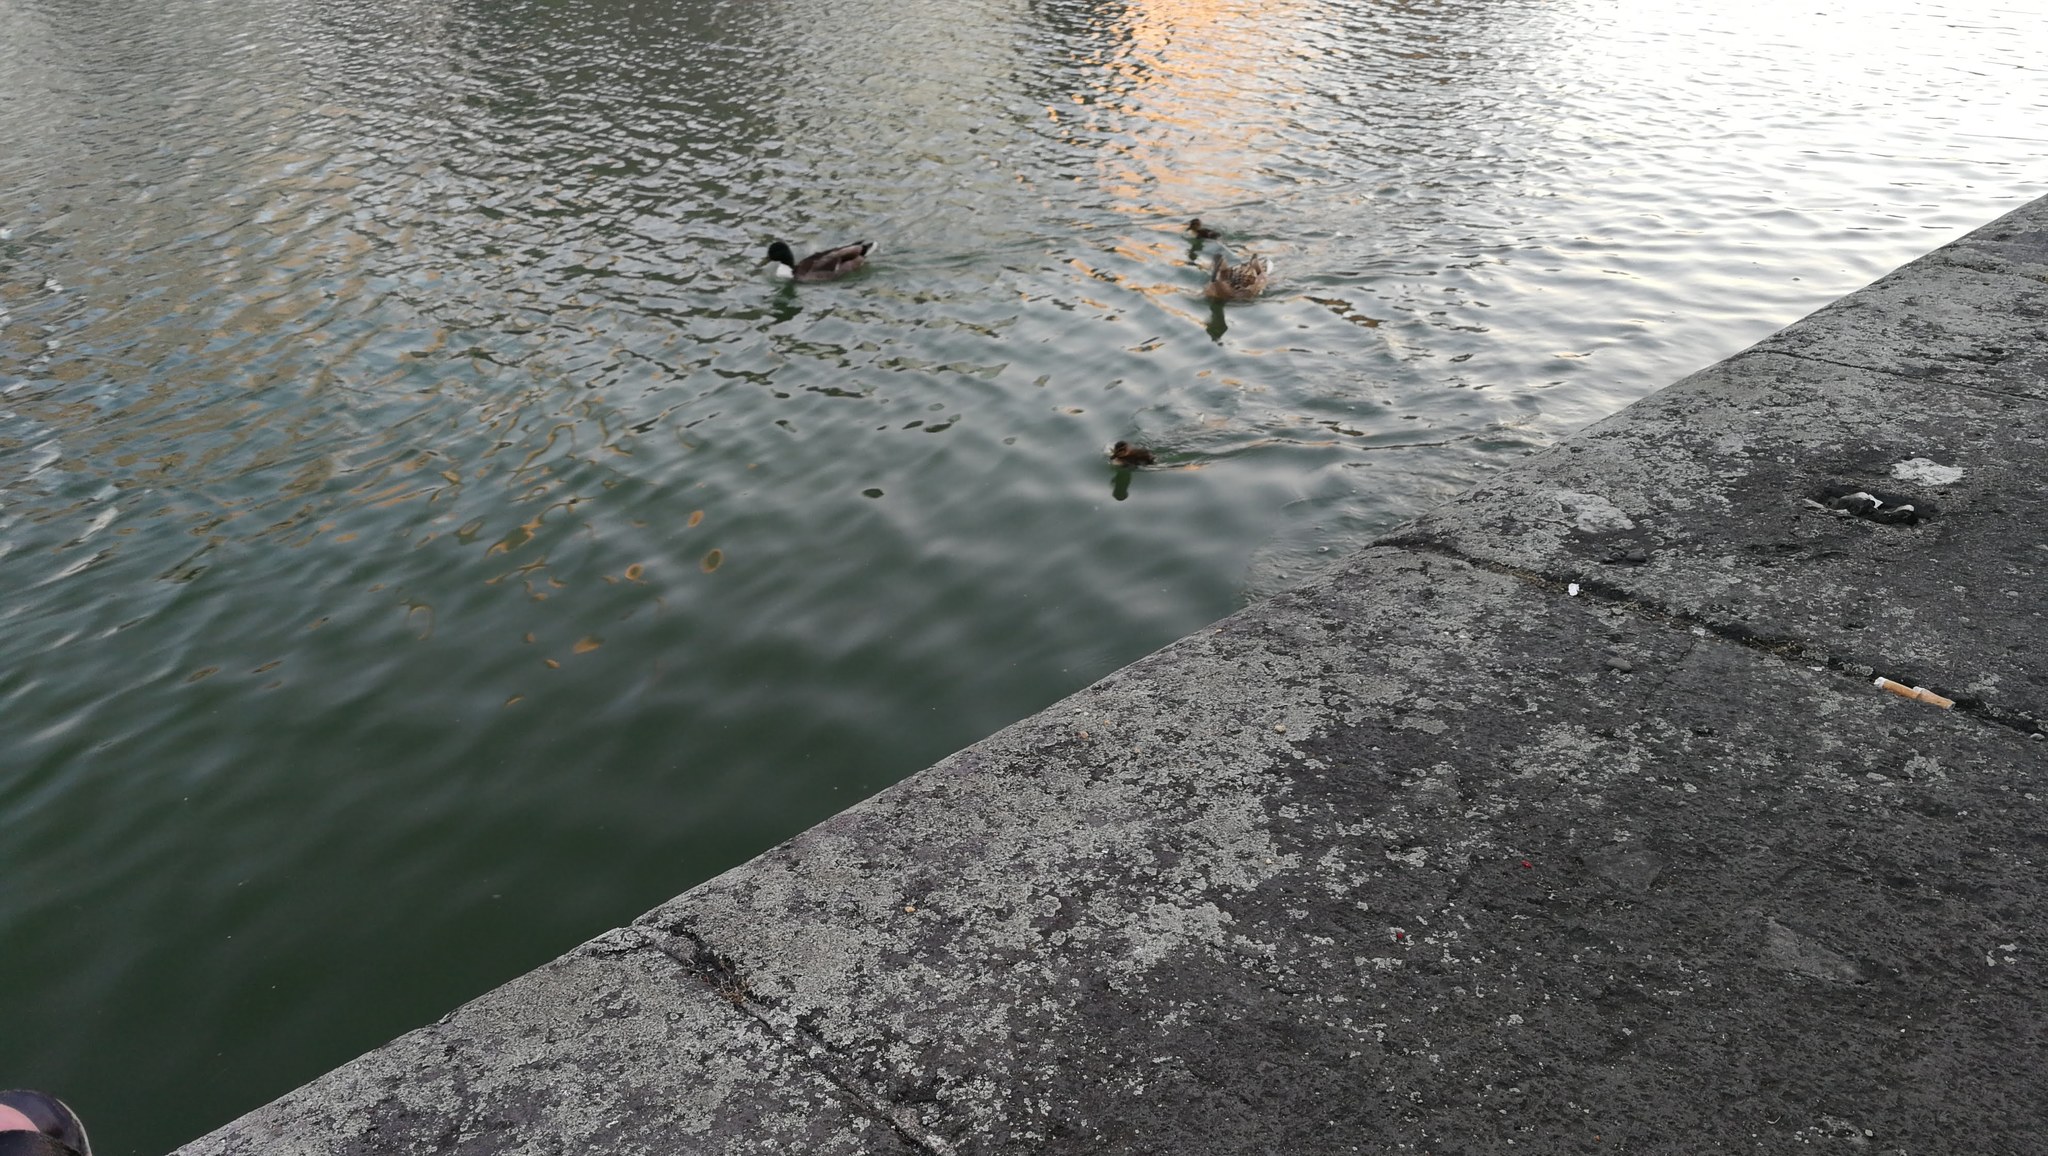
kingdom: Animalia
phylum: Chordata
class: Aves
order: Anseriformes
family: Anatidae
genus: Anas
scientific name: Anas platyrhynchos
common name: Mallard
